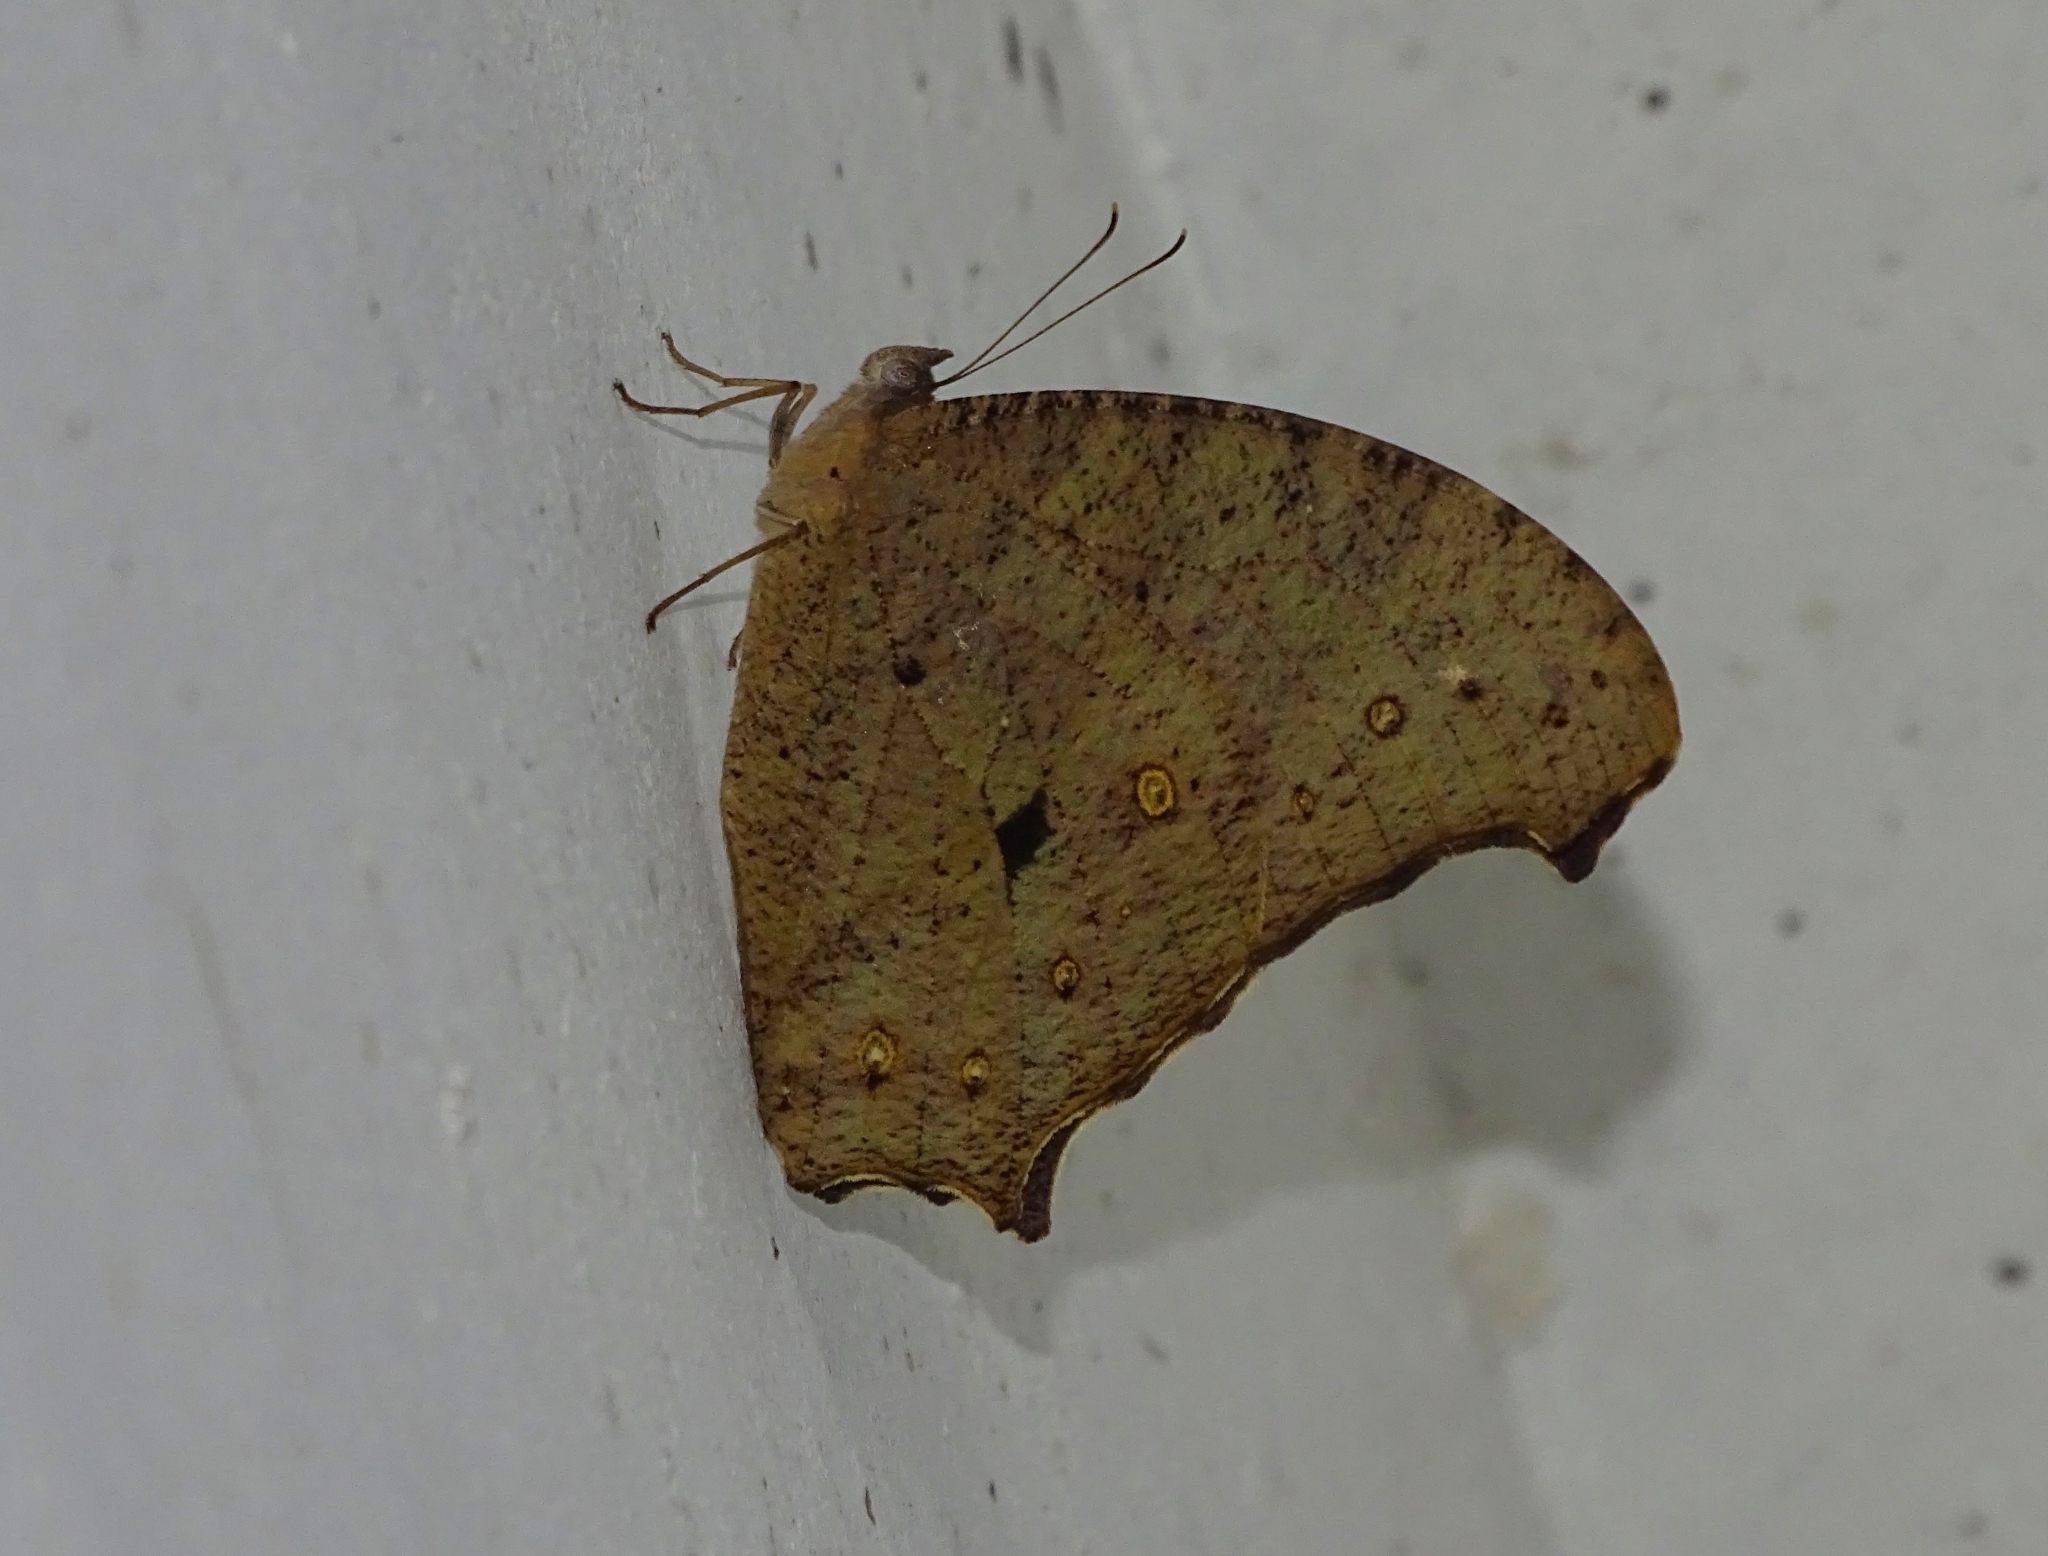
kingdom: Animalia
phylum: Arthropoda
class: Insecta
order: Lepidoptera
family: Nymphalidae
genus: Melanitis
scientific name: Melanitis leda
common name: Twilight brown
